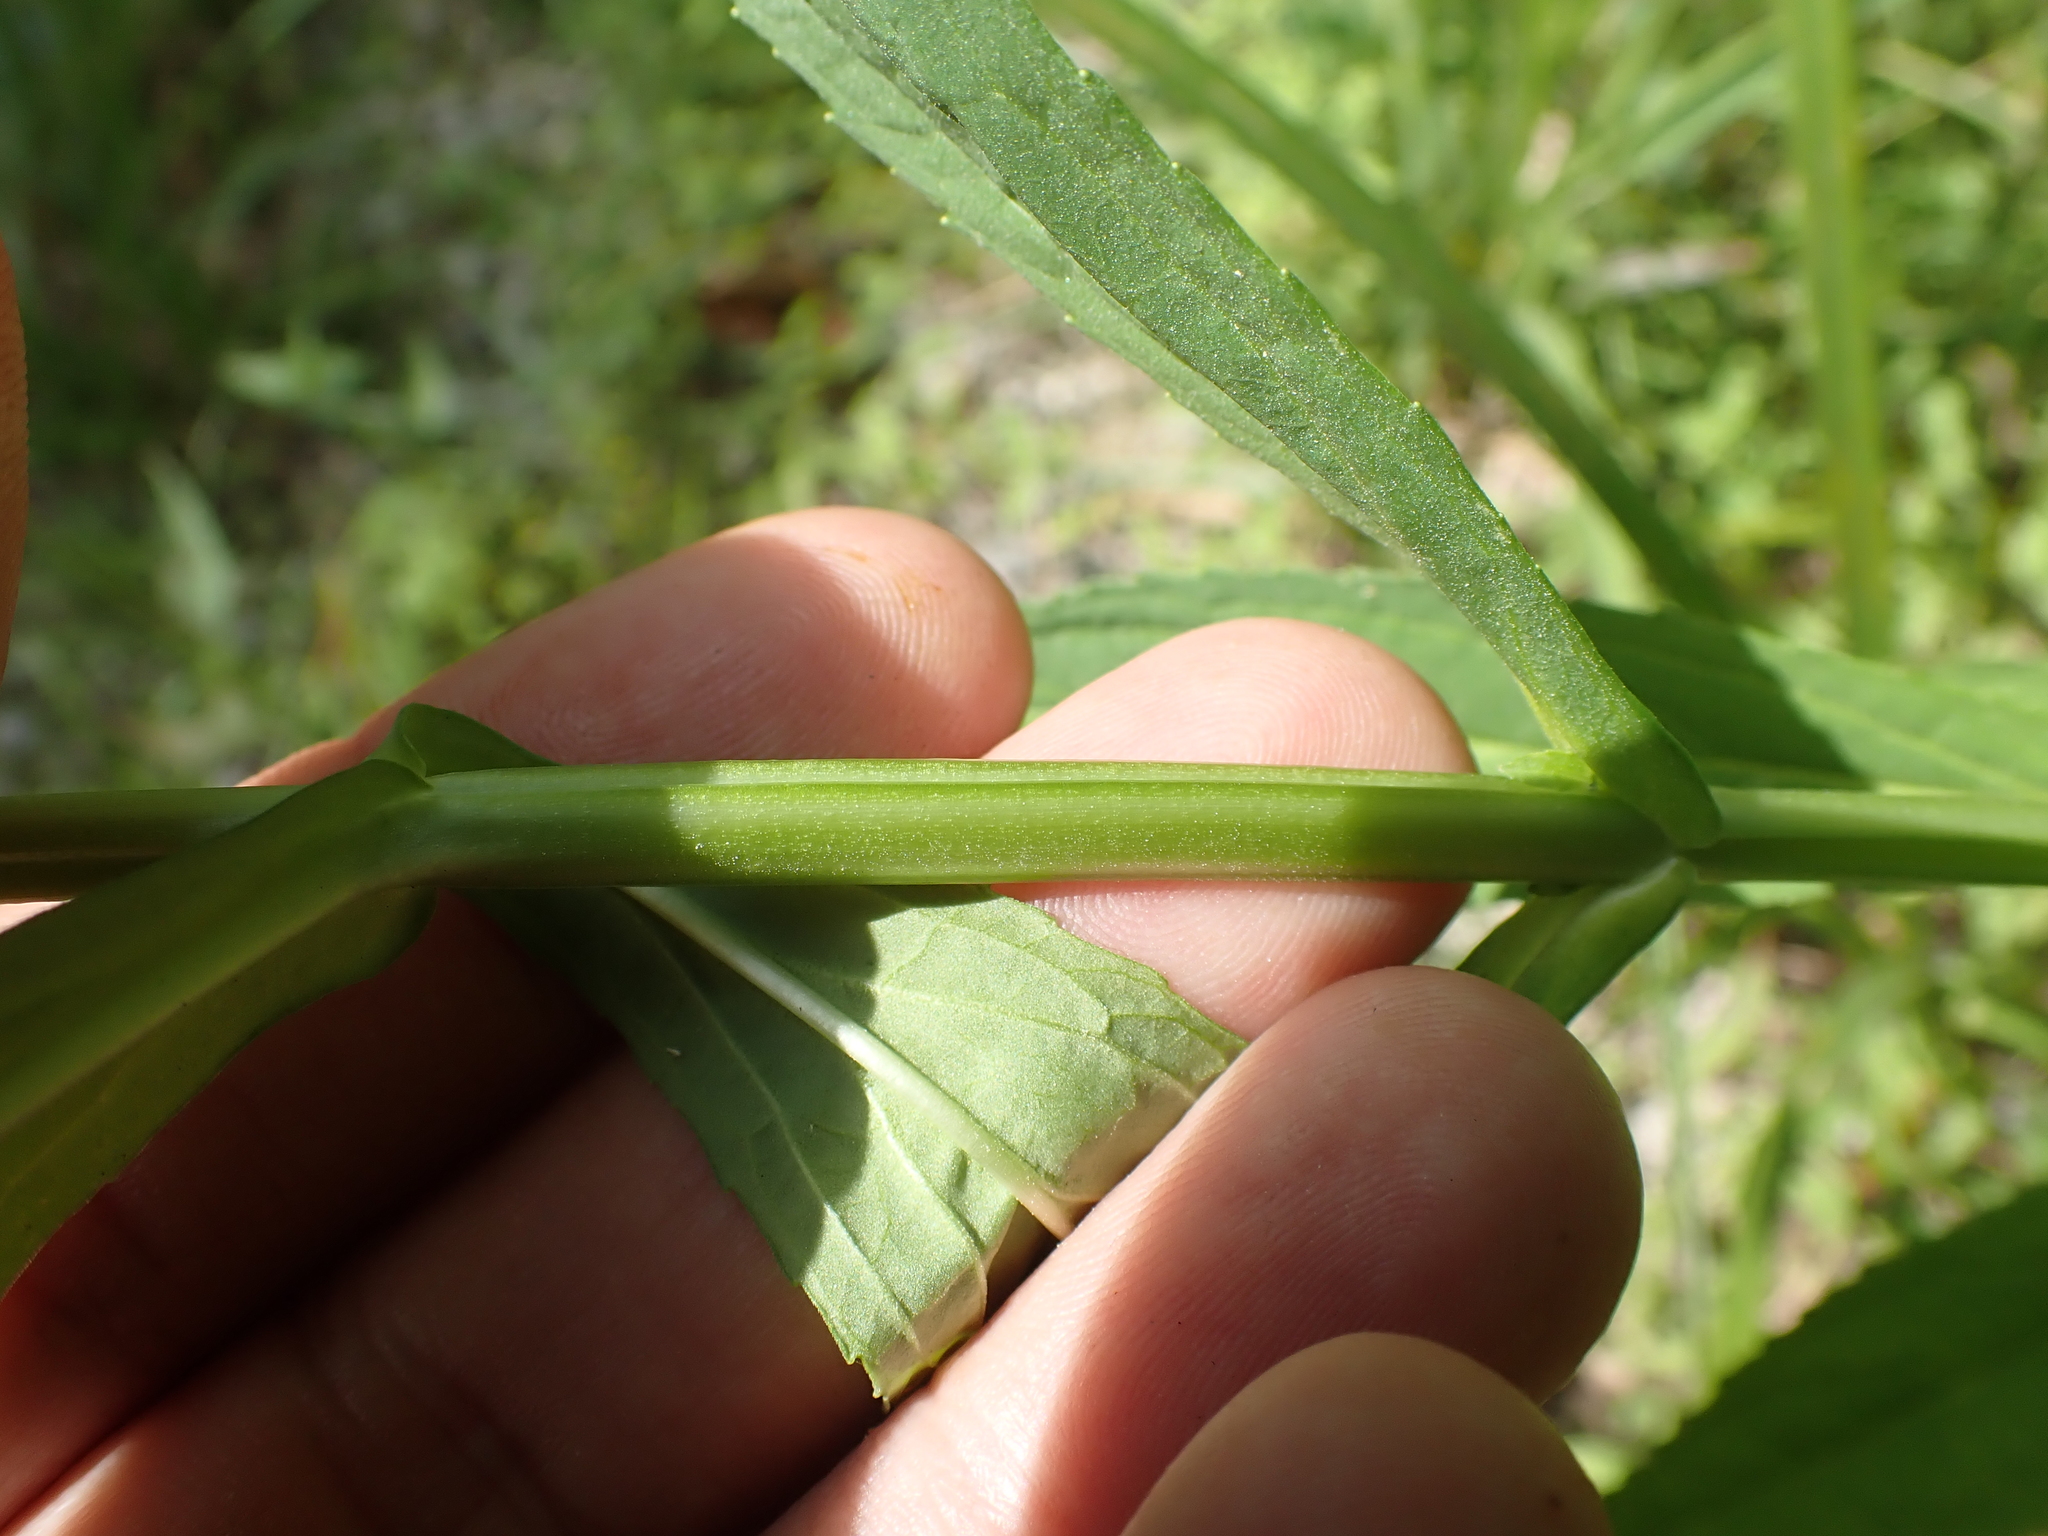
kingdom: Plantae
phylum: Tracheophyta
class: Magnoliopsida
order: Lamiales
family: Phrymaceae
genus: Mimulus
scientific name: Mimulus ringens
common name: Allegheny monkeyflower
